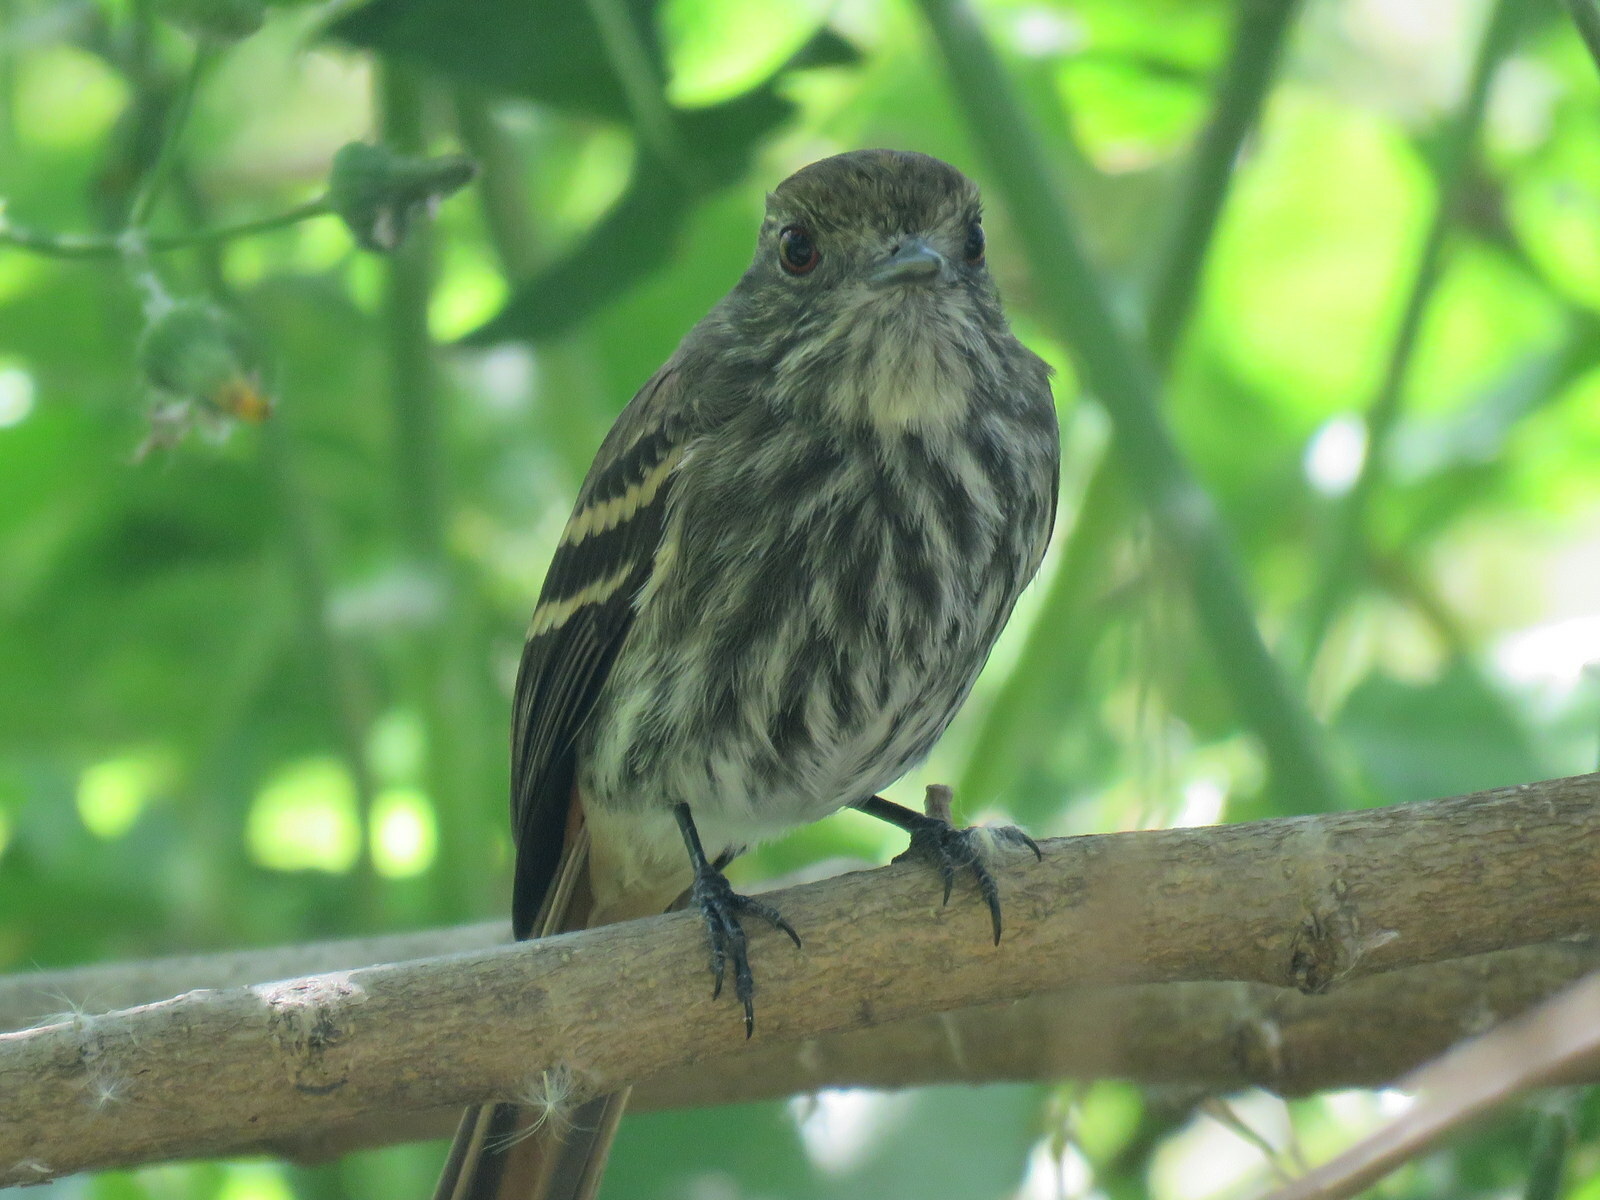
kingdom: Animalia
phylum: Chordata
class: Aves
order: Passeriformes
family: Tyrannidae
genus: Knipolegus
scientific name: Knipolegus cyanirostris
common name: Blue-billed black tyrant
